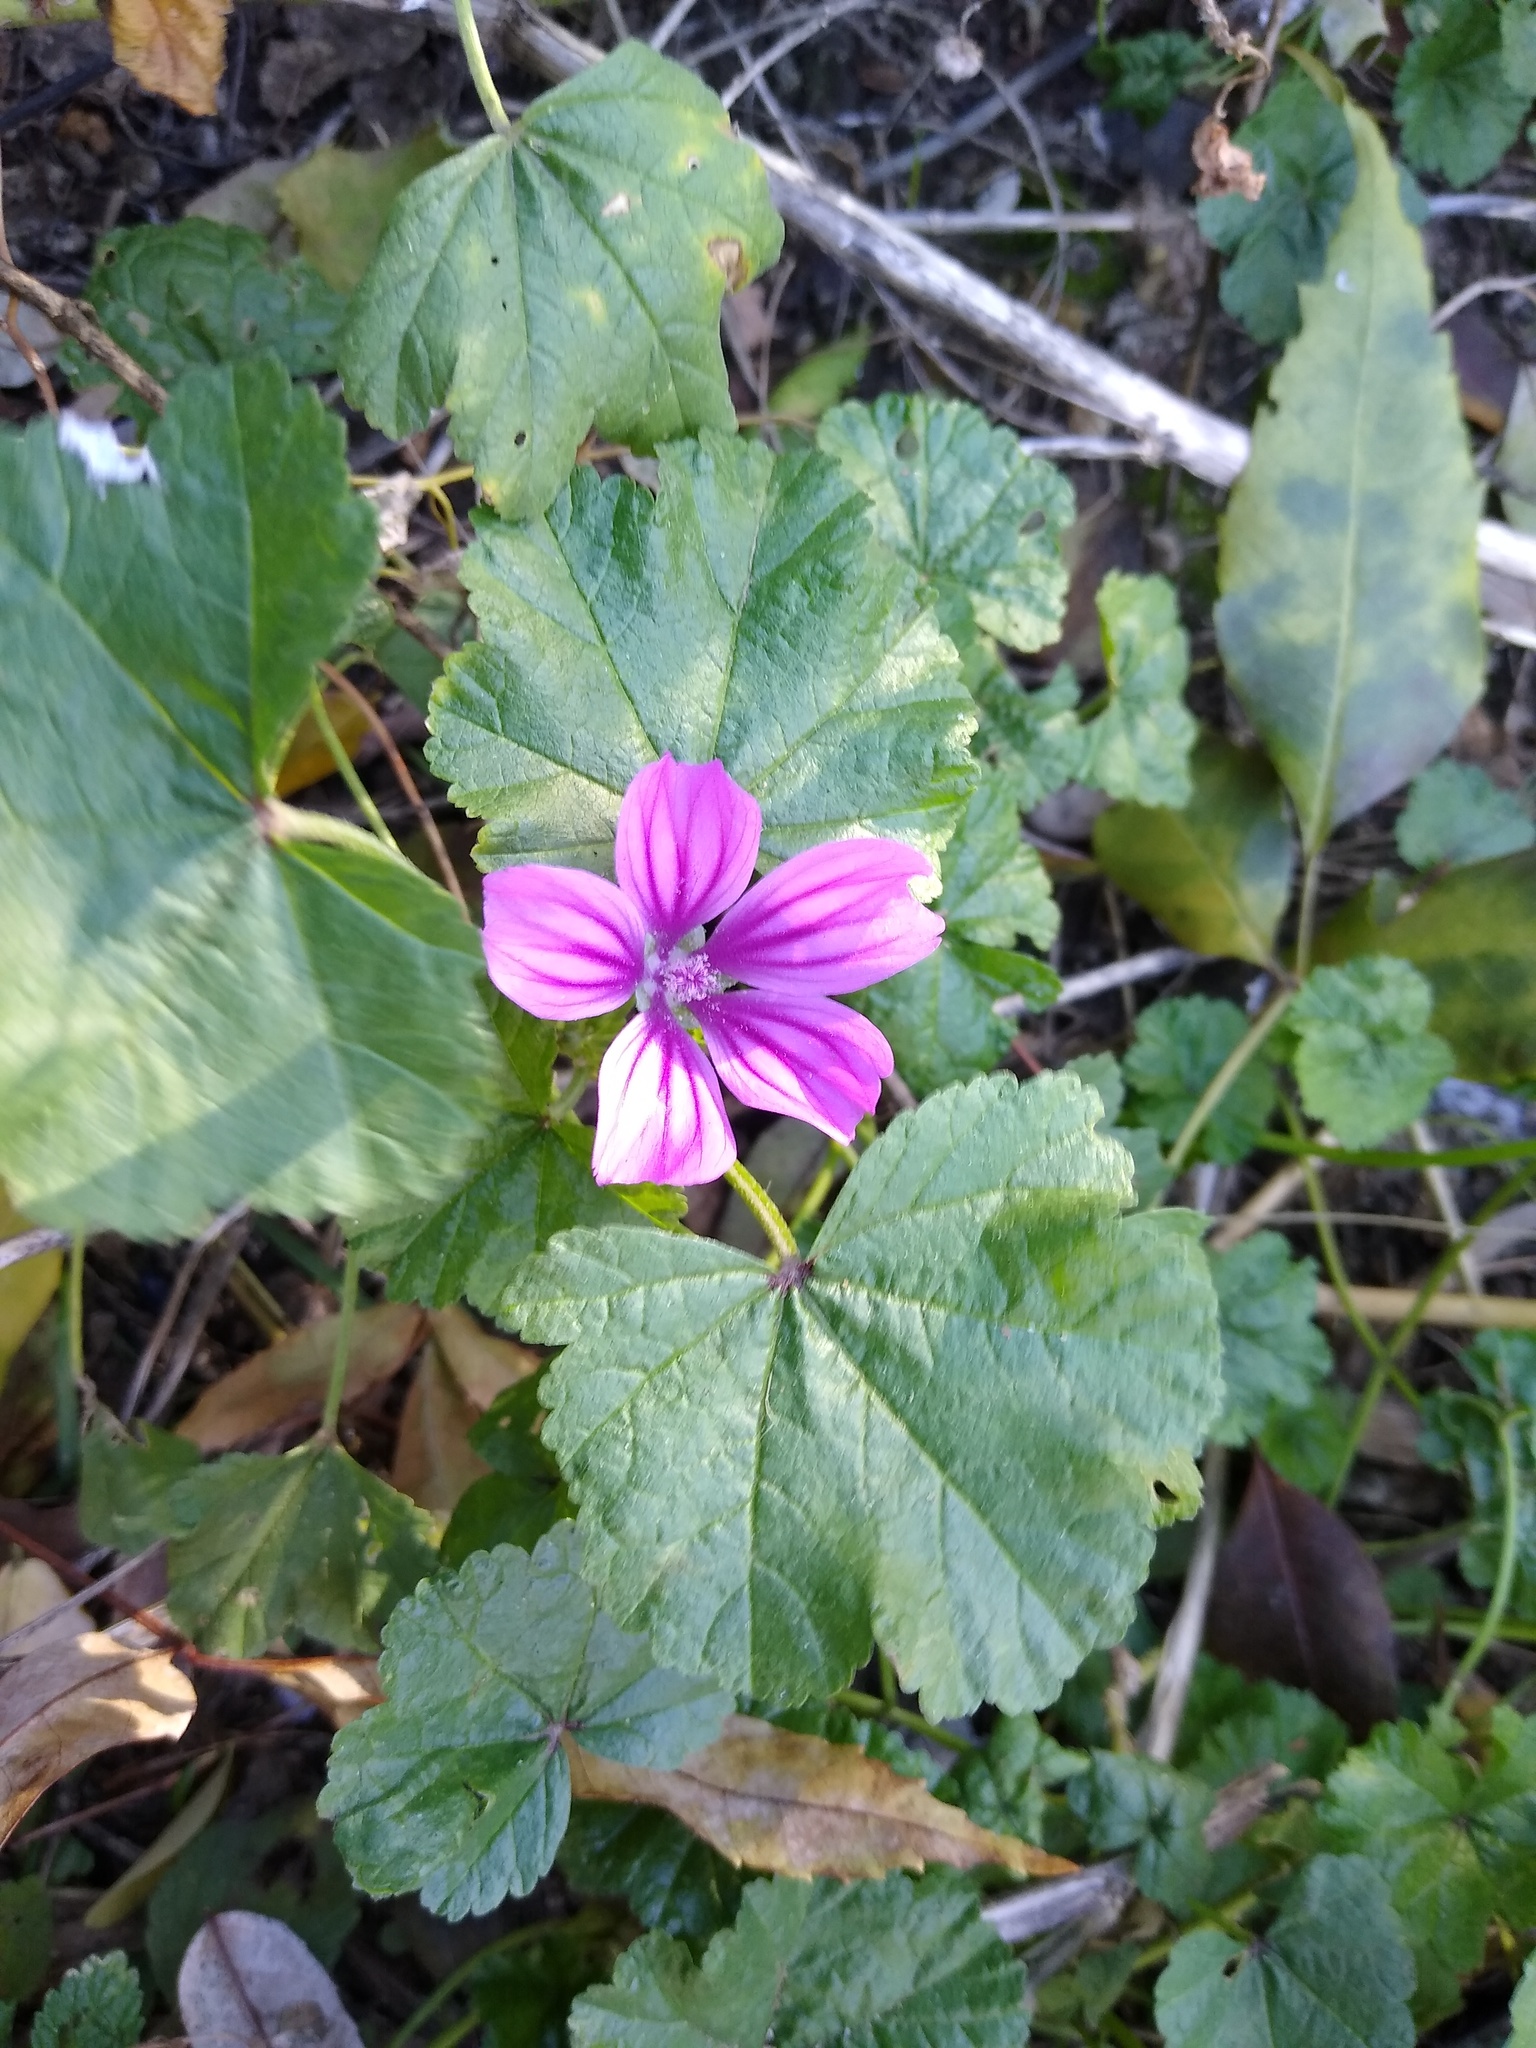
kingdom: Plantae
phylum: Tracheophyta
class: Magnoliopsida
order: Malvales
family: Malvaceae
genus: Malva
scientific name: Malva sylvestris
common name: Common mallow
